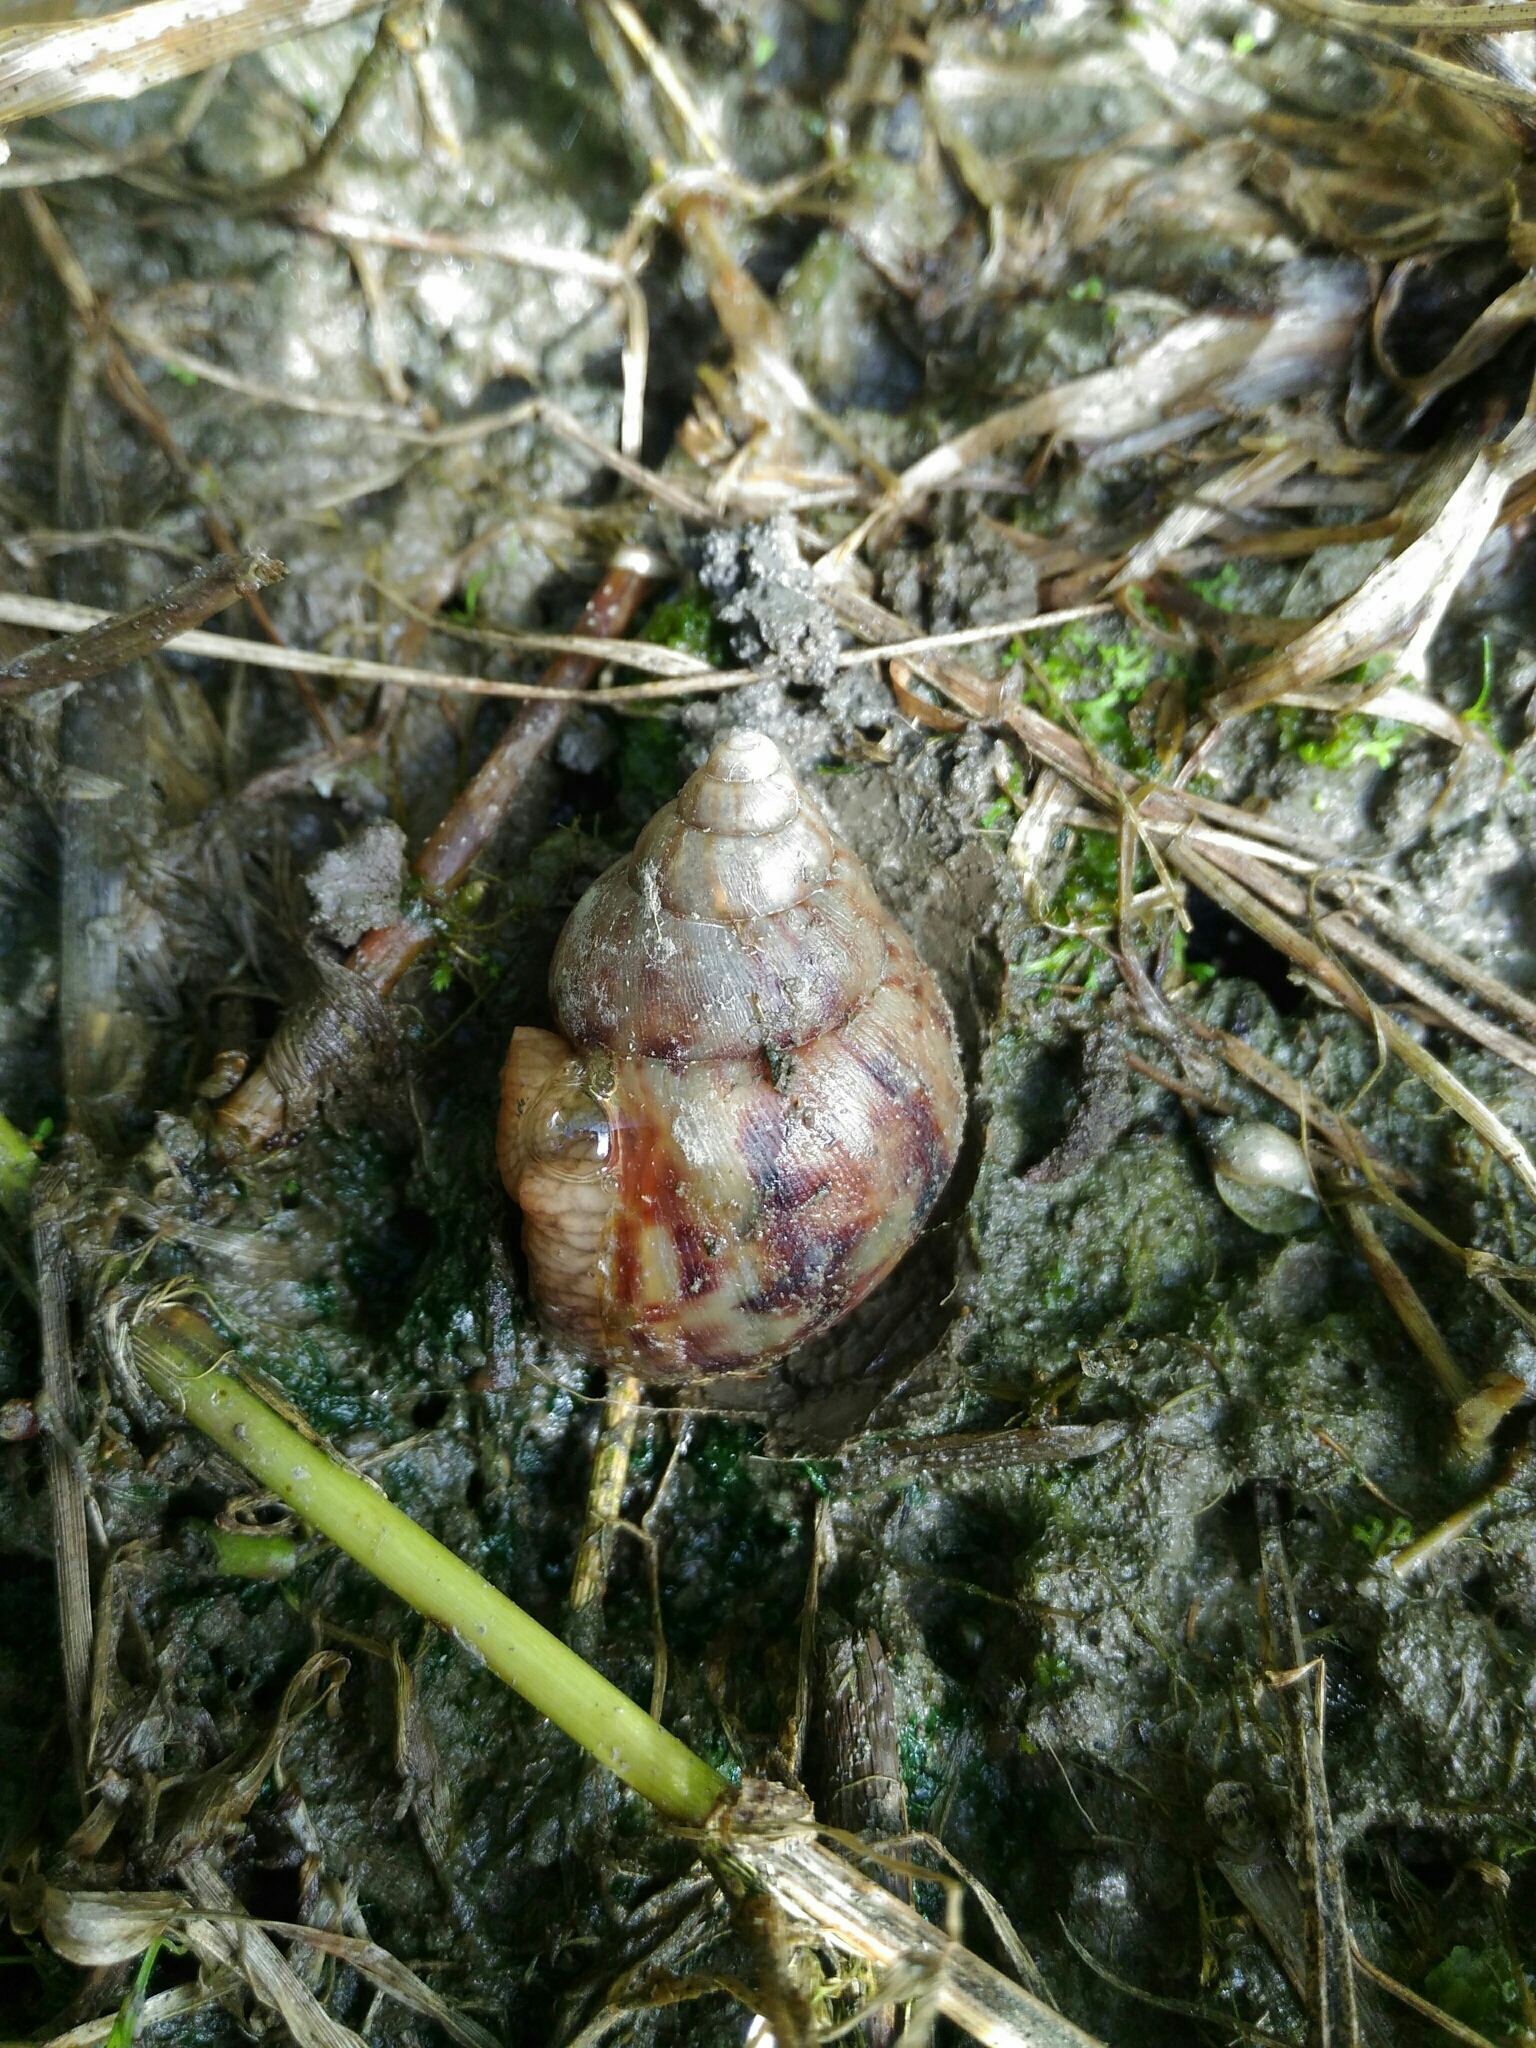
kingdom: Animalia
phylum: Mollusca
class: Gastropoda
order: Stylommatophora
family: Achatinidae
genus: Lissachatina
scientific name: Lissachatina fulica
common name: Giant african snail
